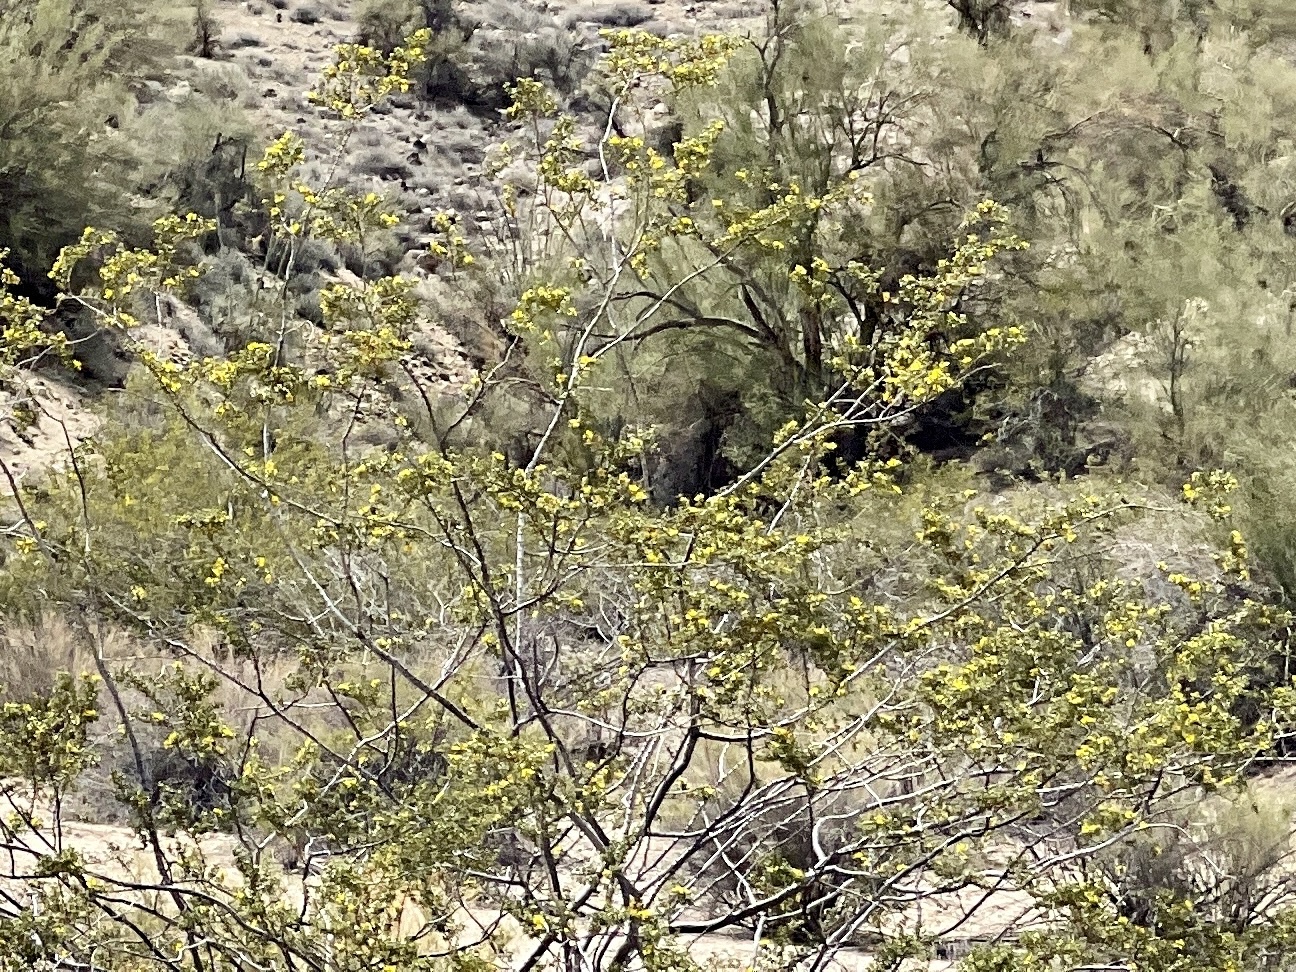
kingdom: Plantae
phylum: Tracheophyta
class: Magnoliopsida
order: Zygophyllales
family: Zygophyllaceae
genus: Larrea
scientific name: Larrea tridentata
